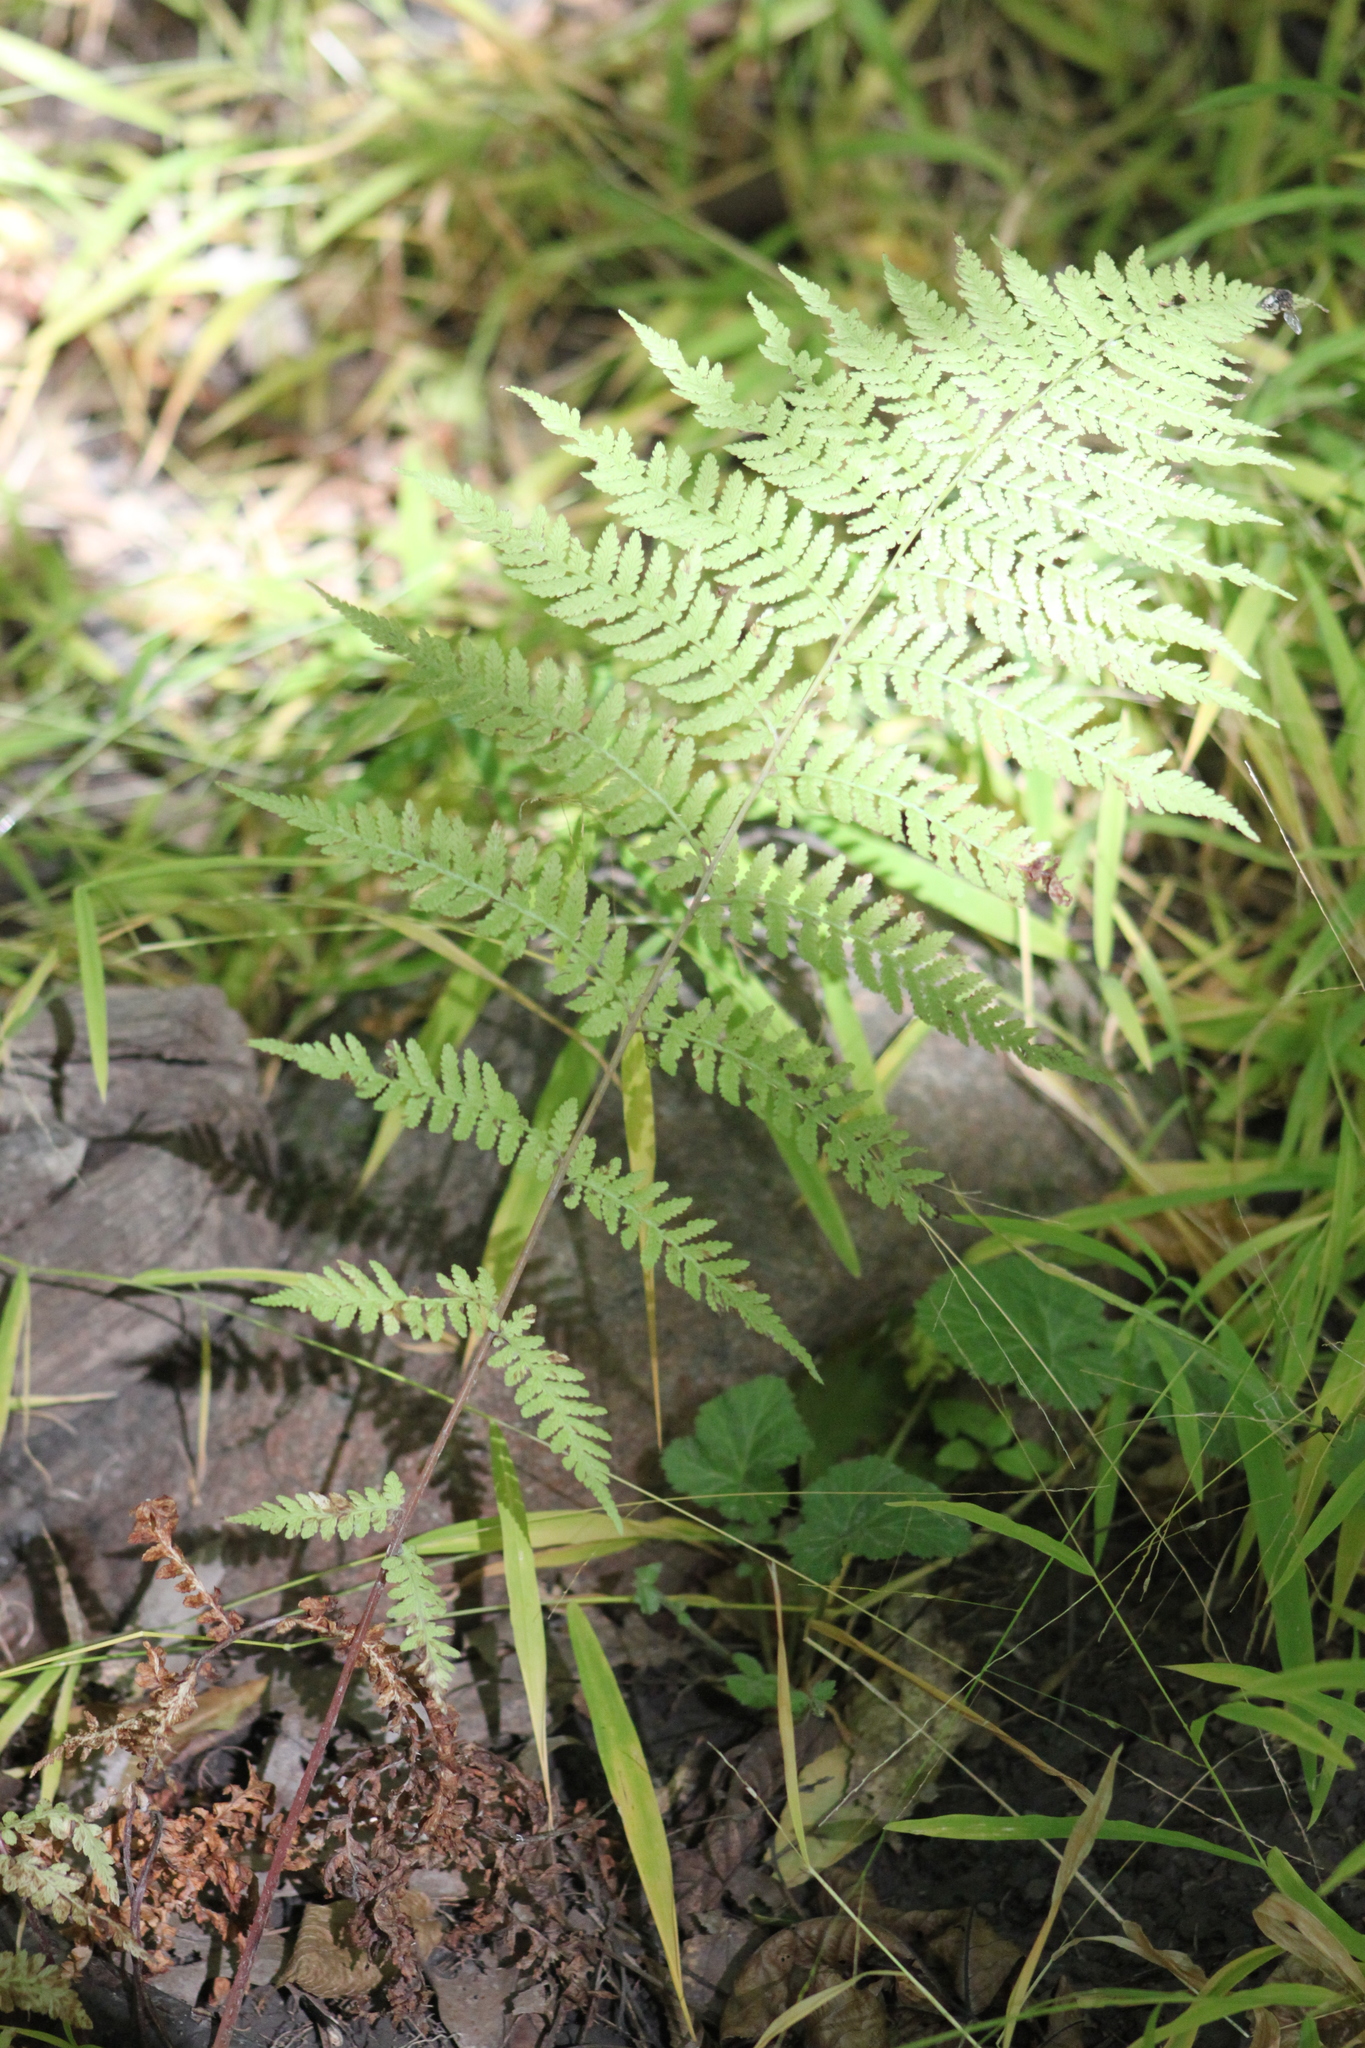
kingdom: Plantae
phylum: Tracheophyta
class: Polypodiopsida
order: Polypodiales
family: Athyriaceae
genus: Athyrium
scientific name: Athyrium angustum
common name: Northern lady fern
